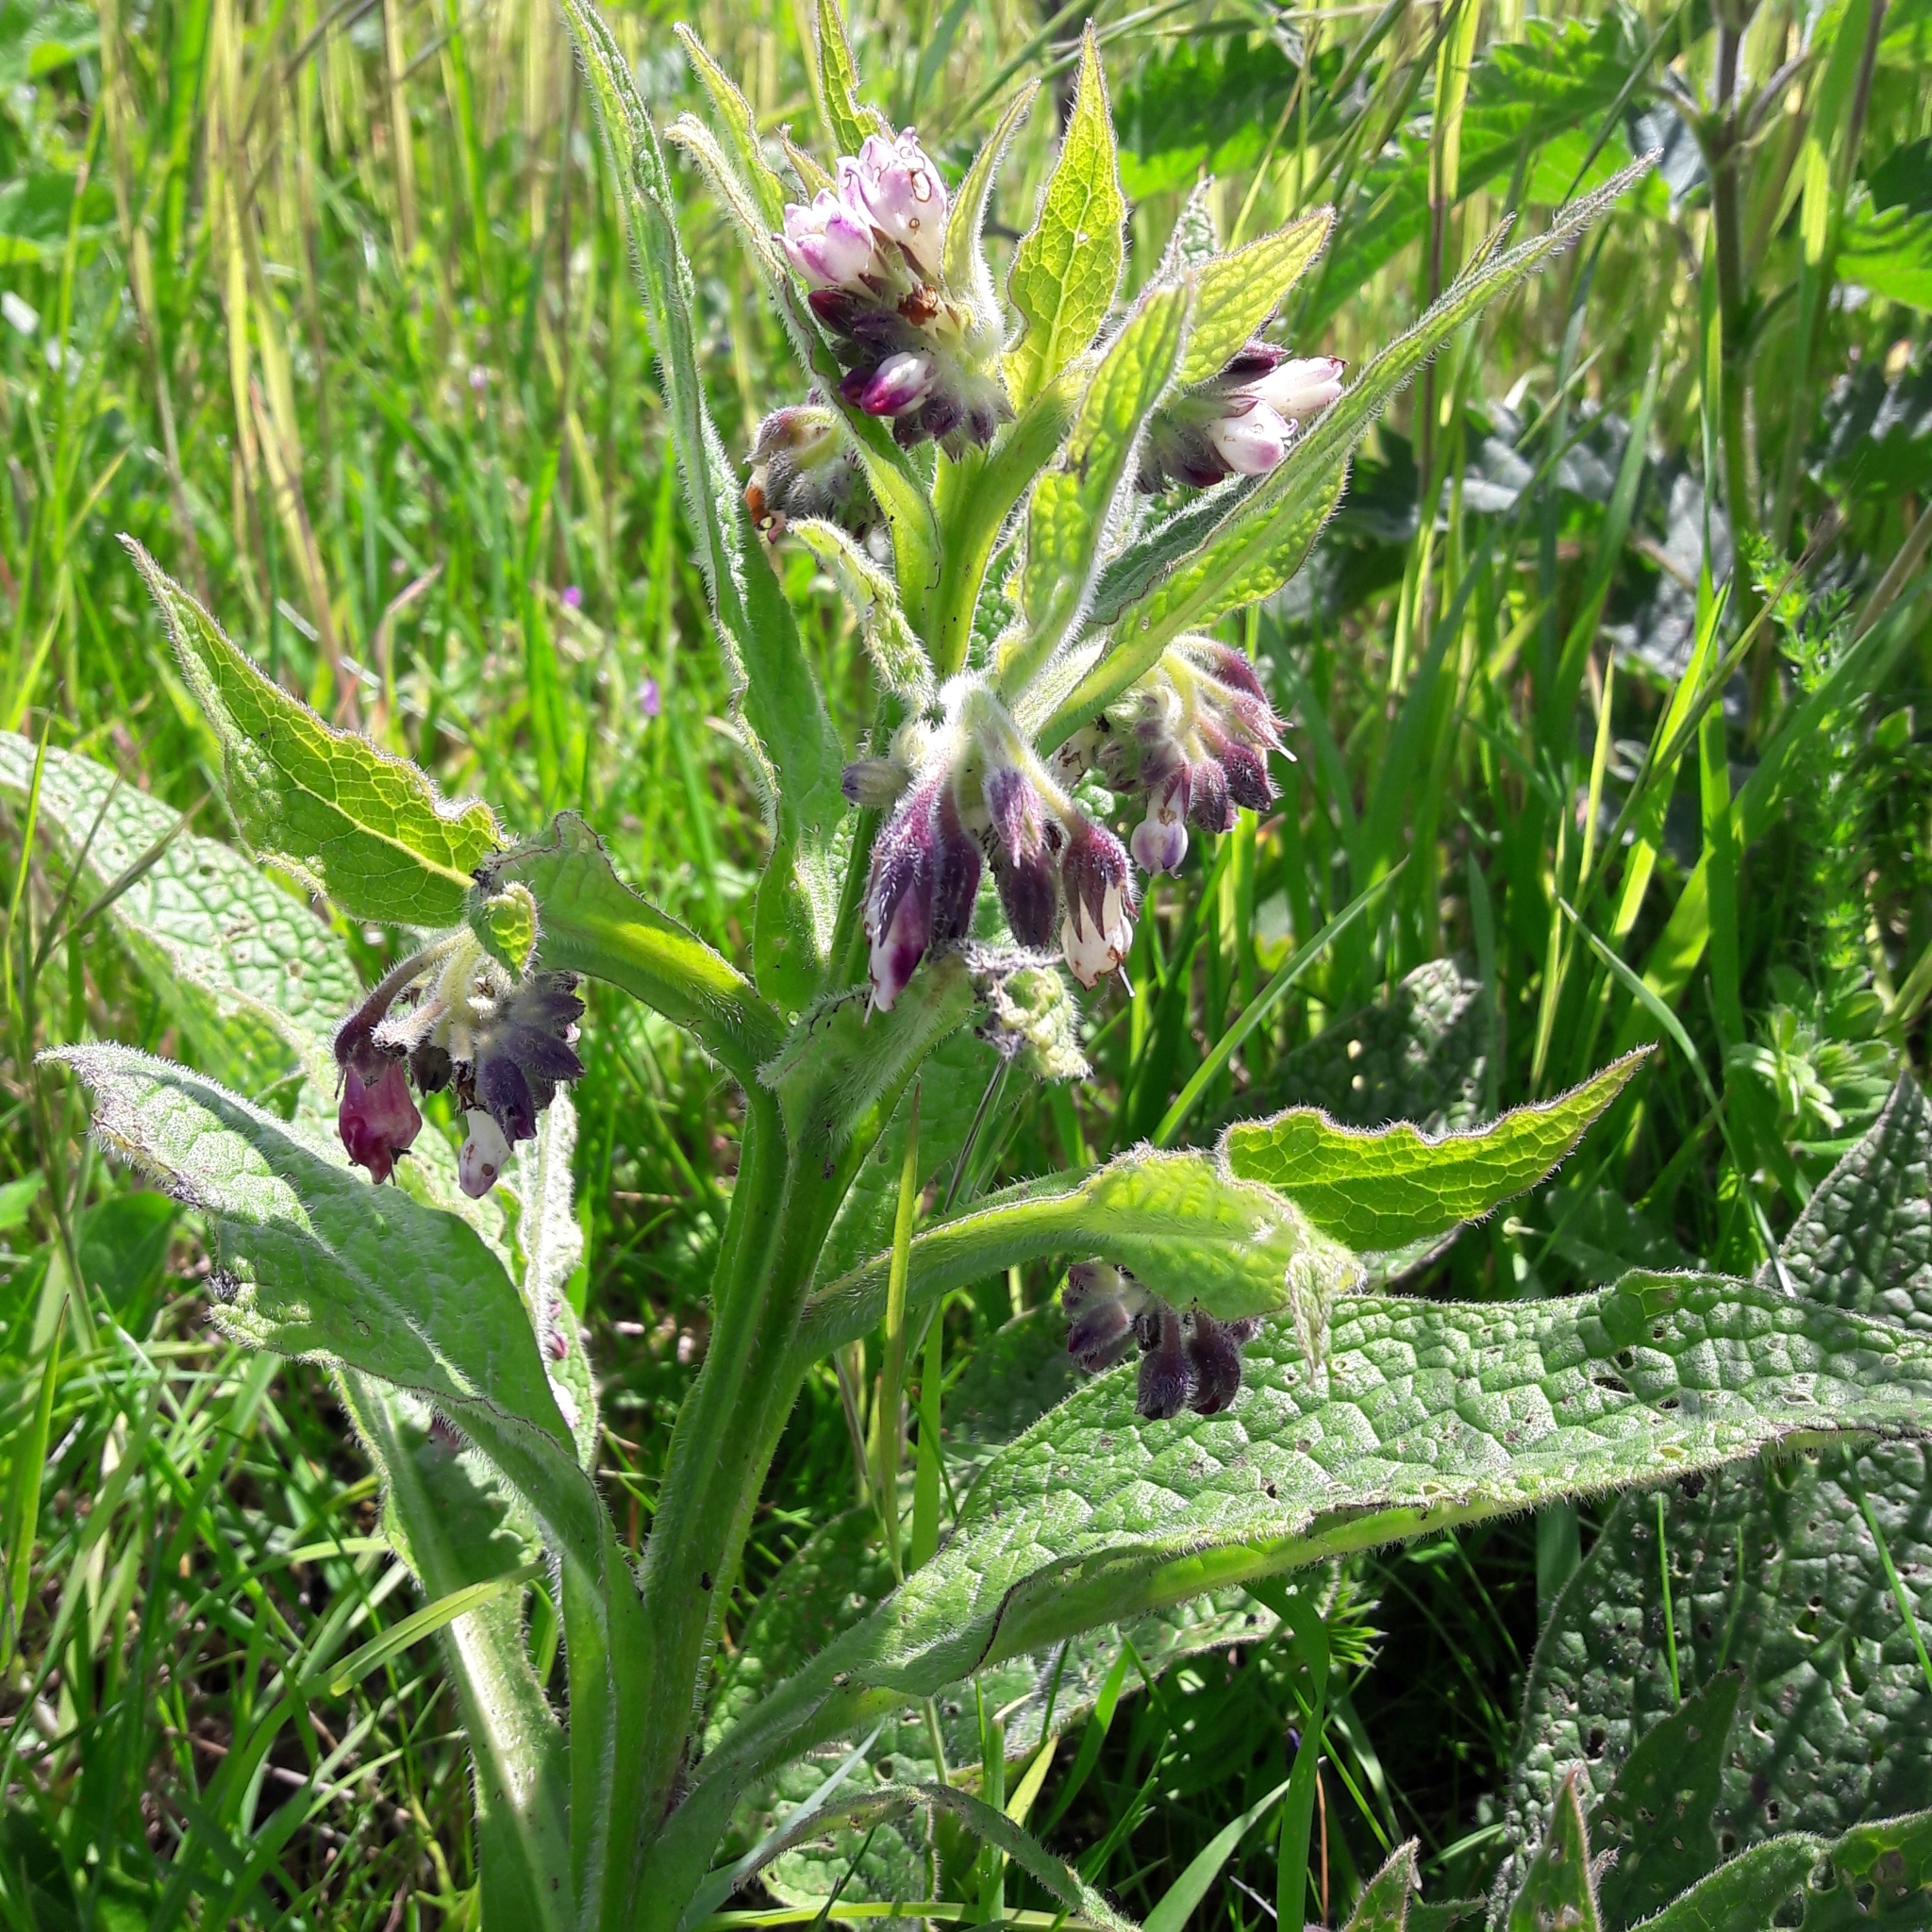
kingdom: Plantae
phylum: Tracheophyta
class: Magnoliopsida
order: Boraginales
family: Boraginaceae
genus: Symphytum
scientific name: Symphytum officinale
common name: Common comfrey
